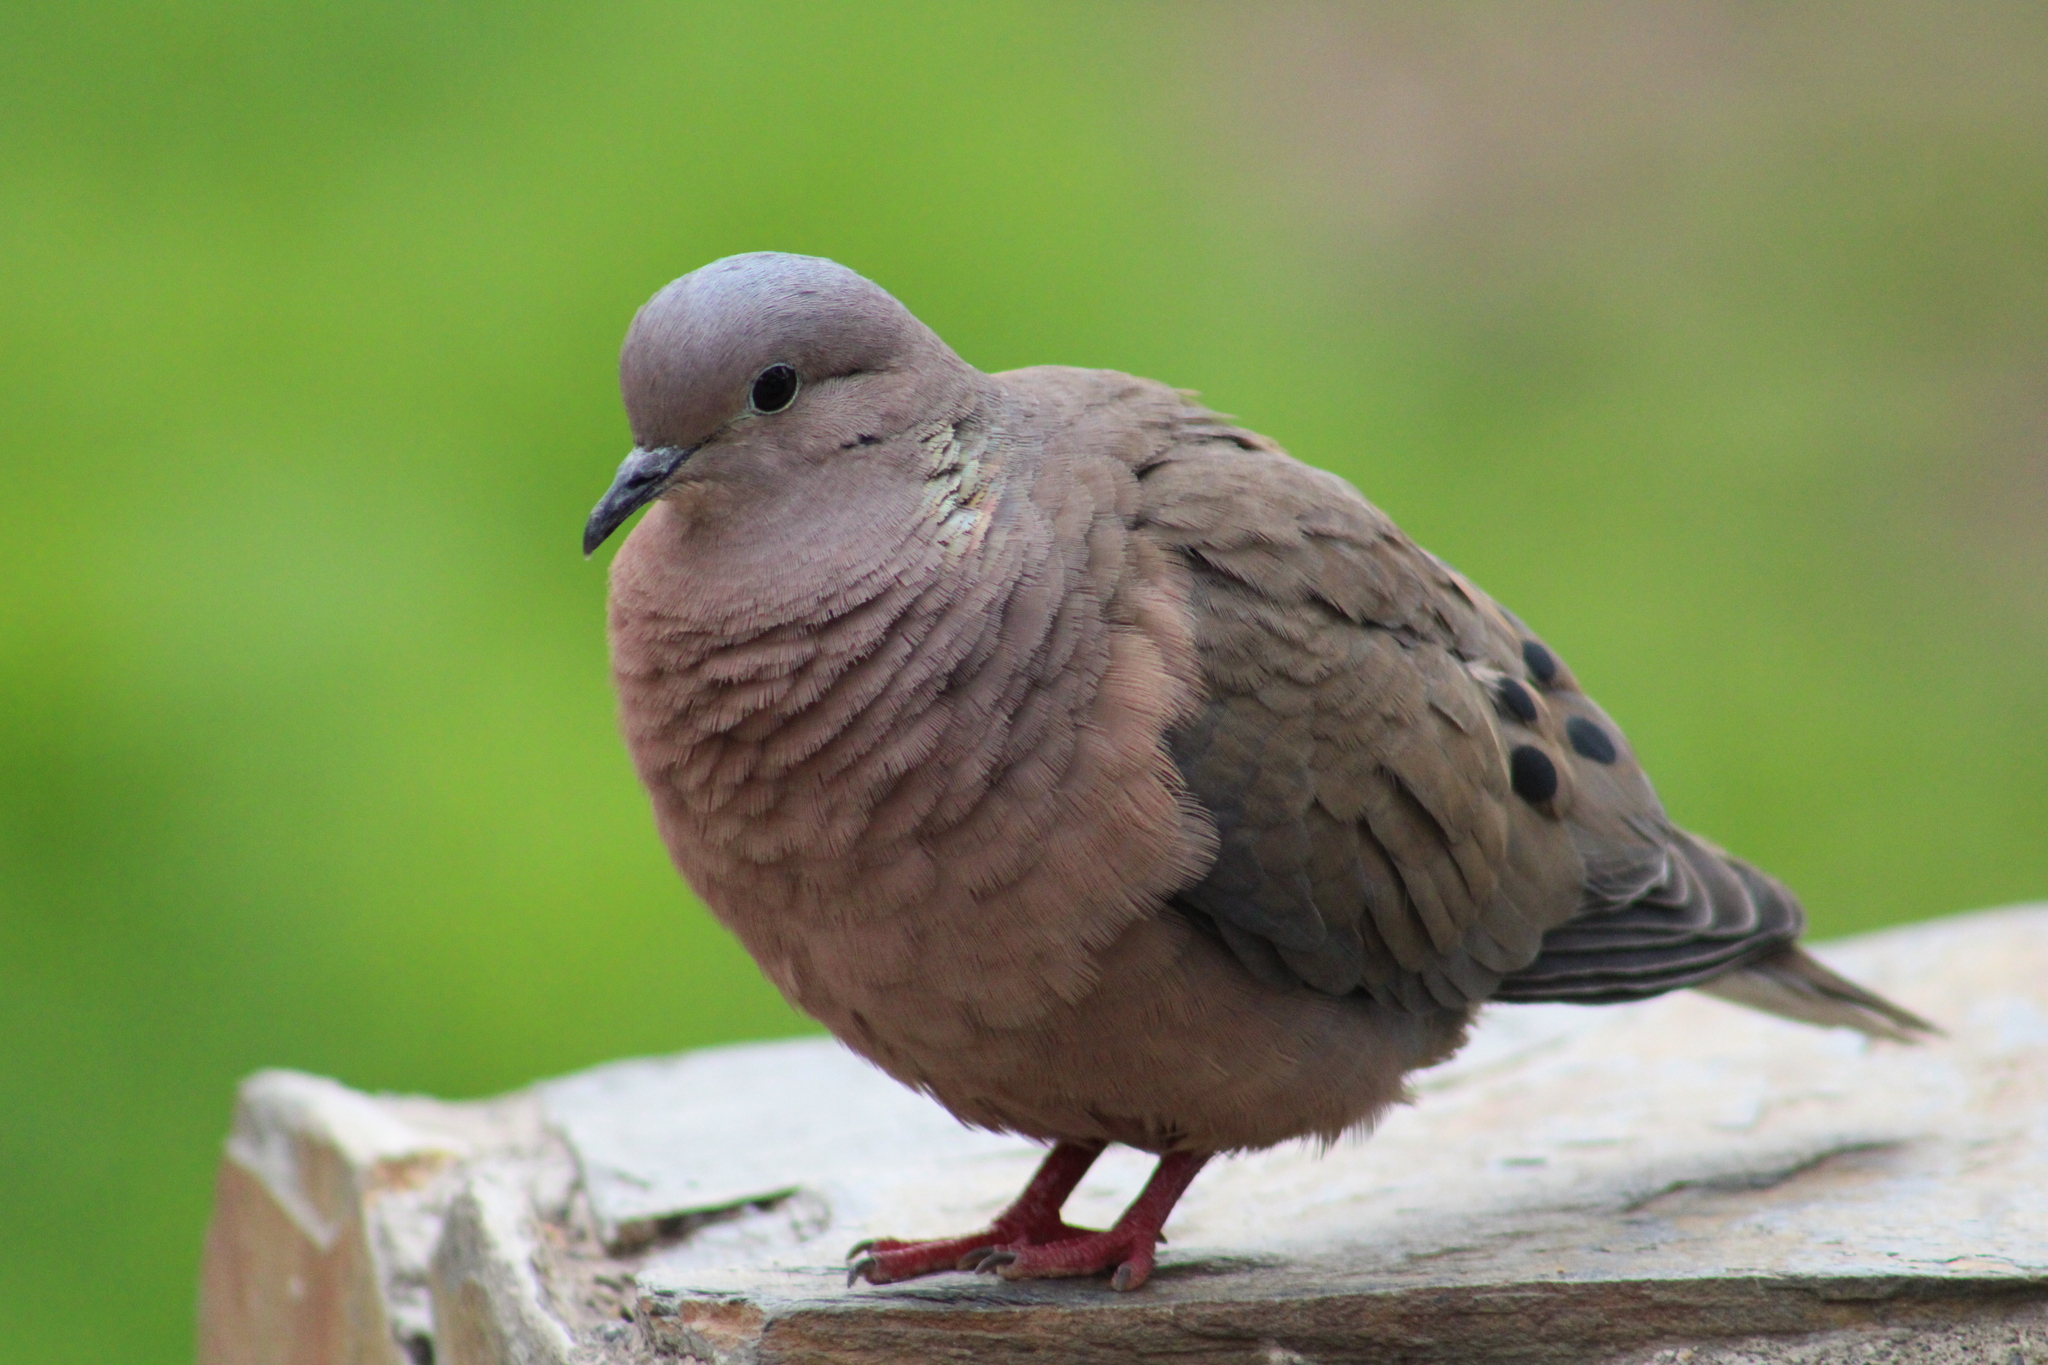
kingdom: Animalia
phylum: Chordata
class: Aves
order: Columbiformes
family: Columbidae
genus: Zenaida
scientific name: Zenaida auriculata
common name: Eared dove
